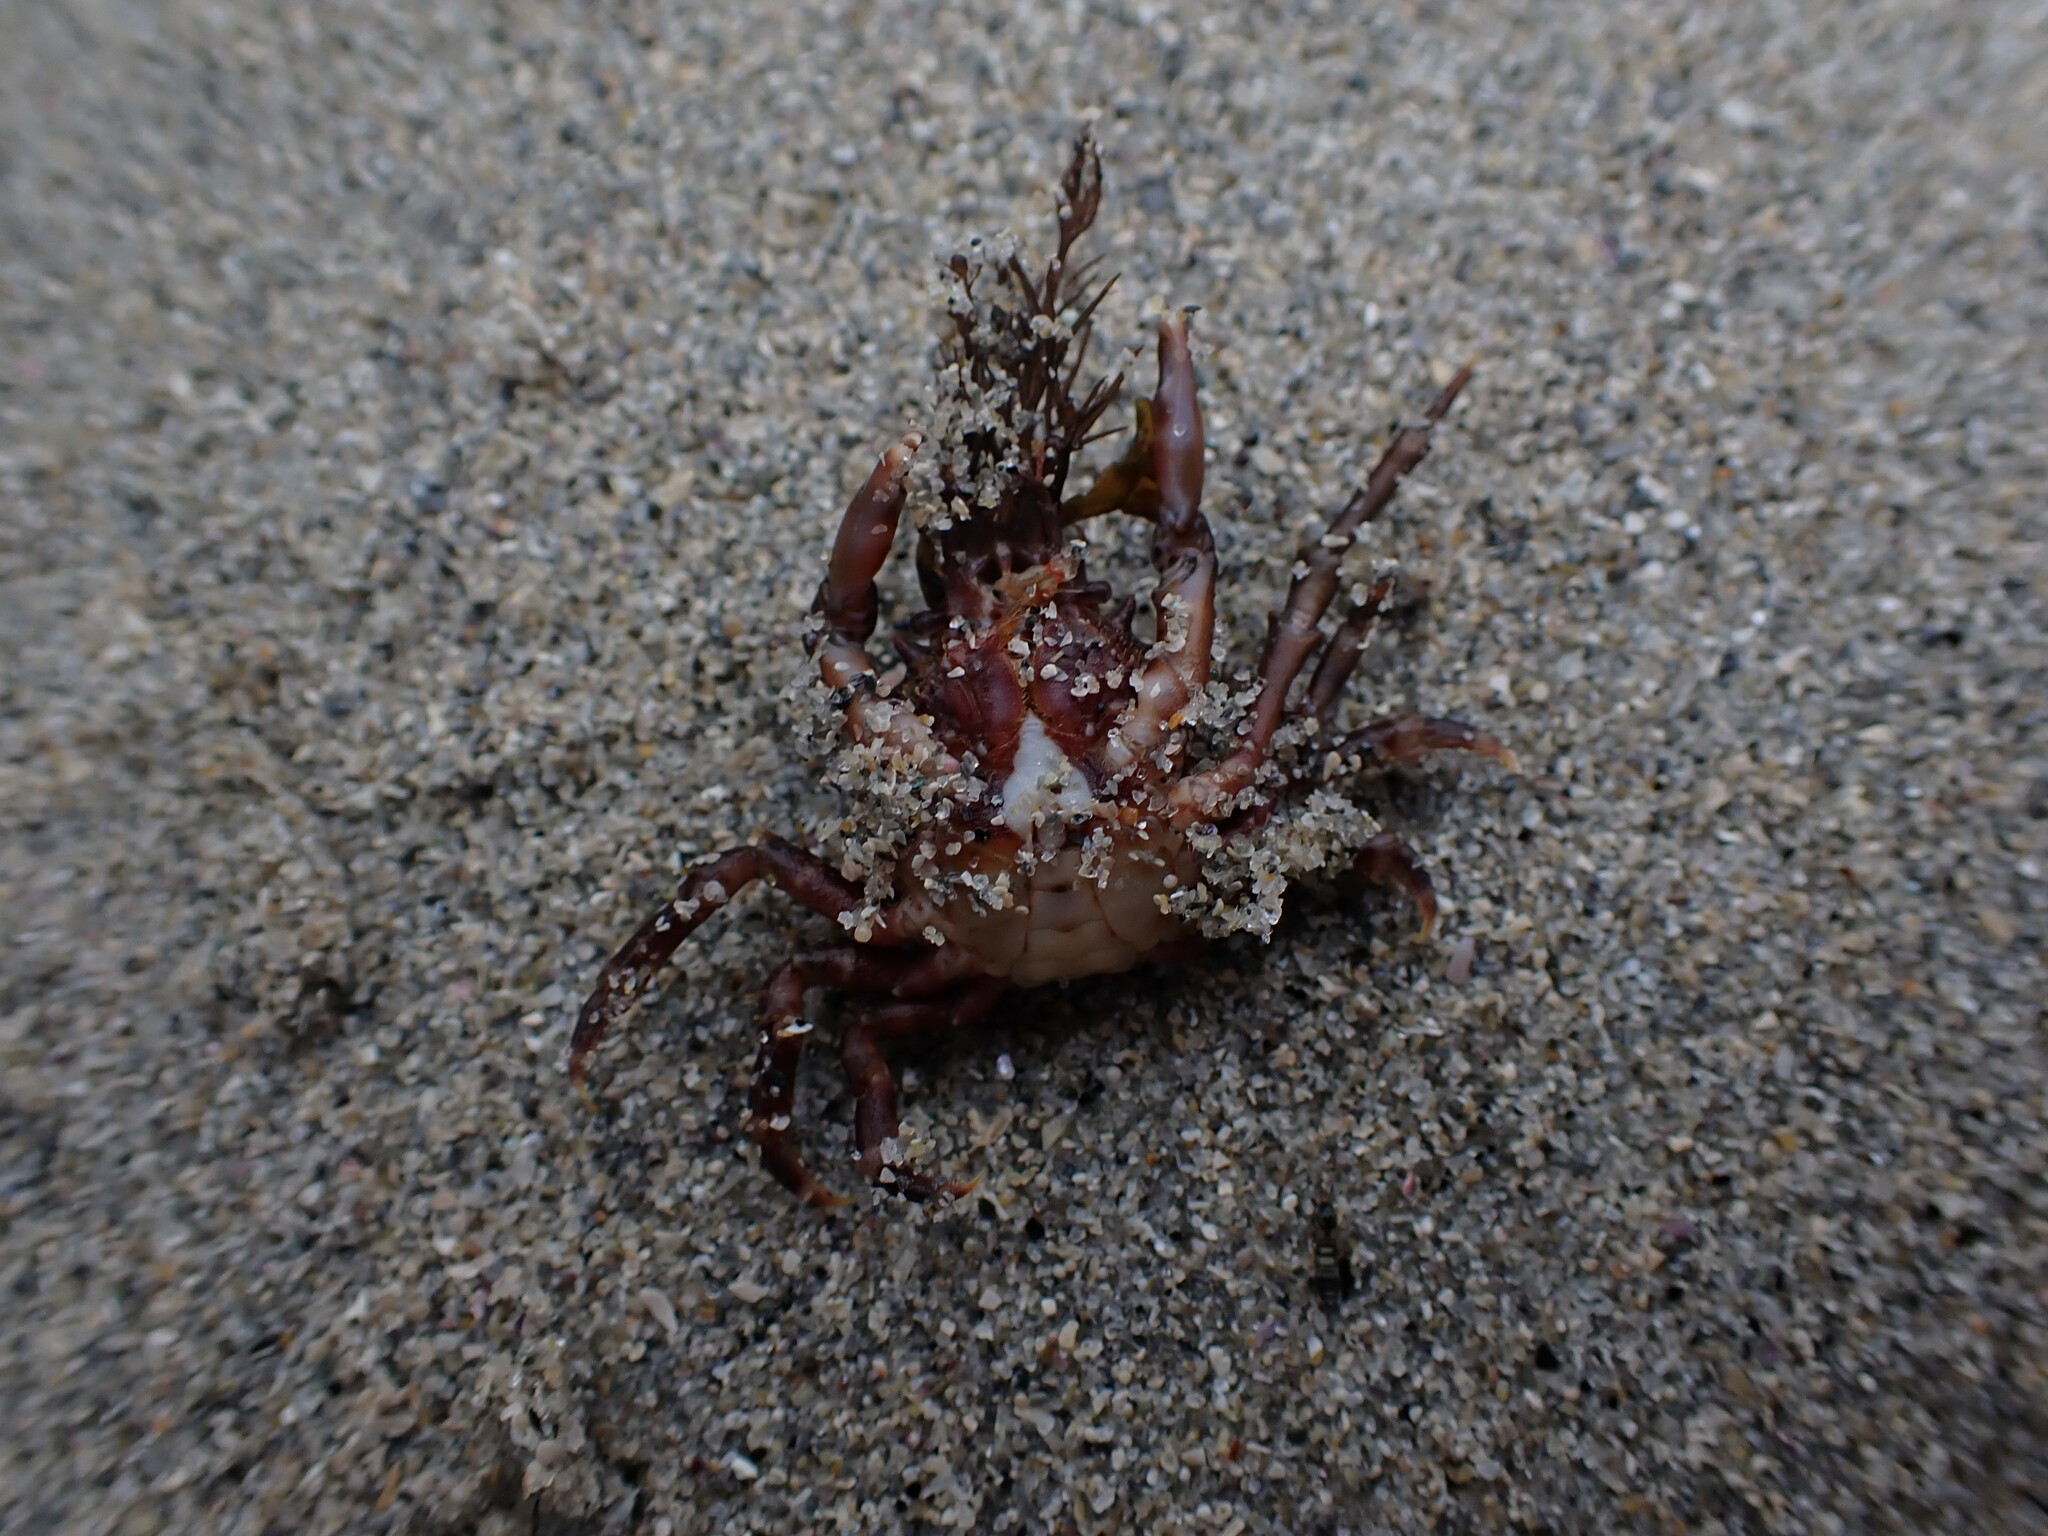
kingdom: Animalia
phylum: Arthropoda
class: Malacostraca
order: Decapoda
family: Epialtidae
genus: Pugettia
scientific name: Pugettia richii
